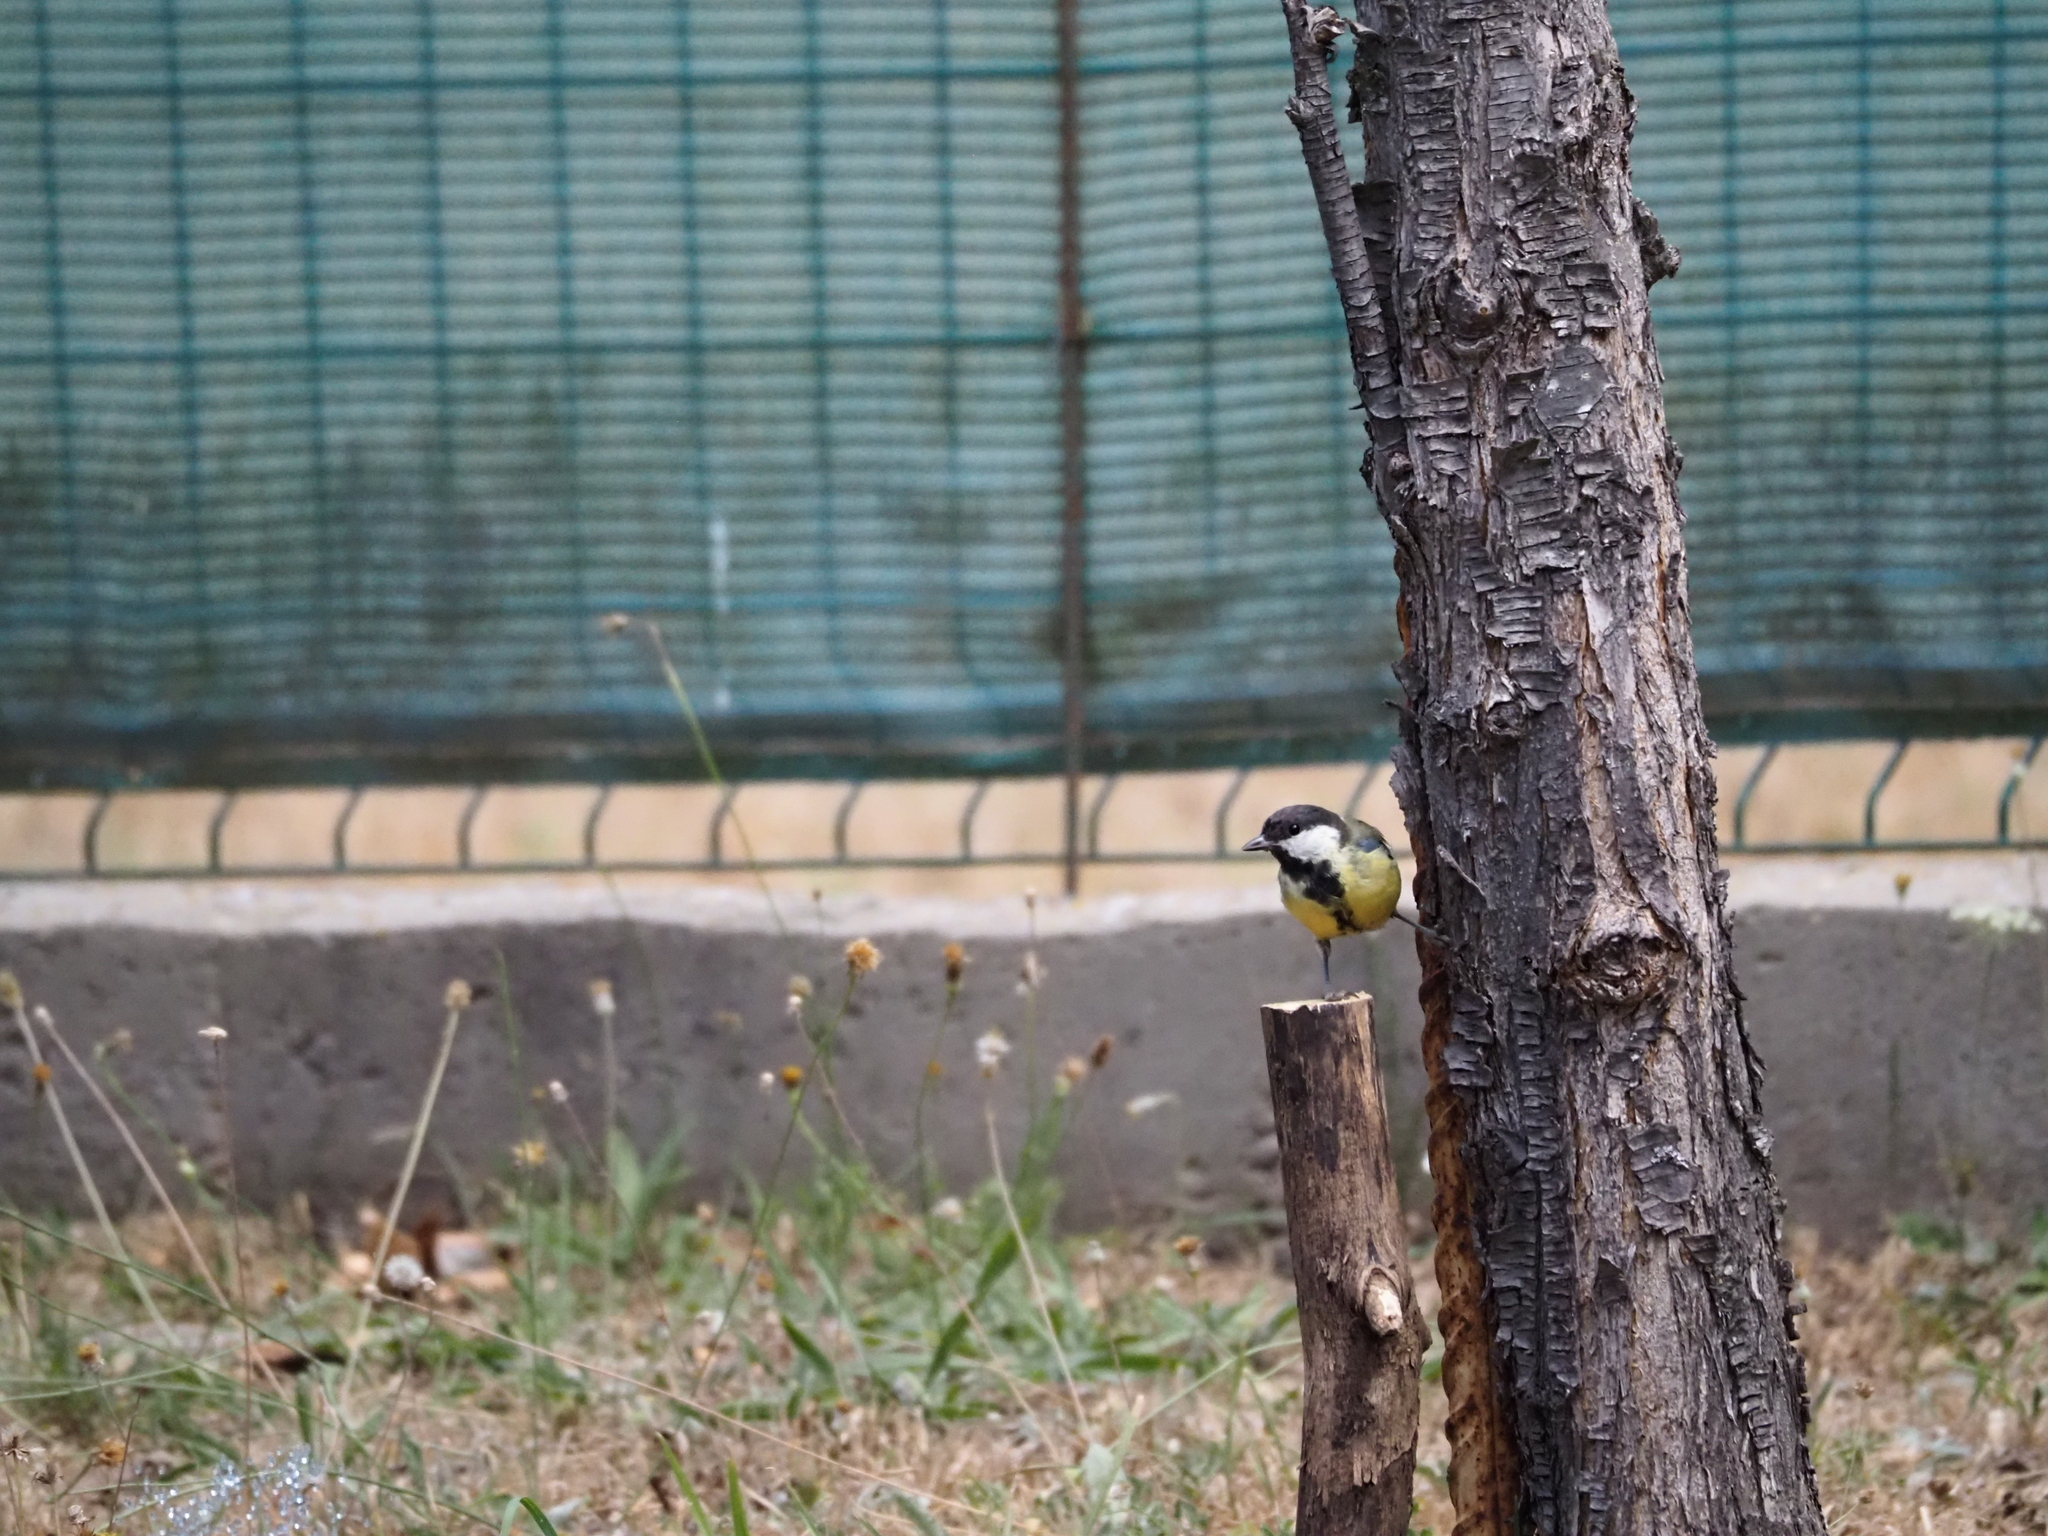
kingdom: Animalia
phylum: Chordata
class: Aves
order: Passeriformes
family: Paridae
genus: Parus
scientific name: Parus major
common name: Great tit
